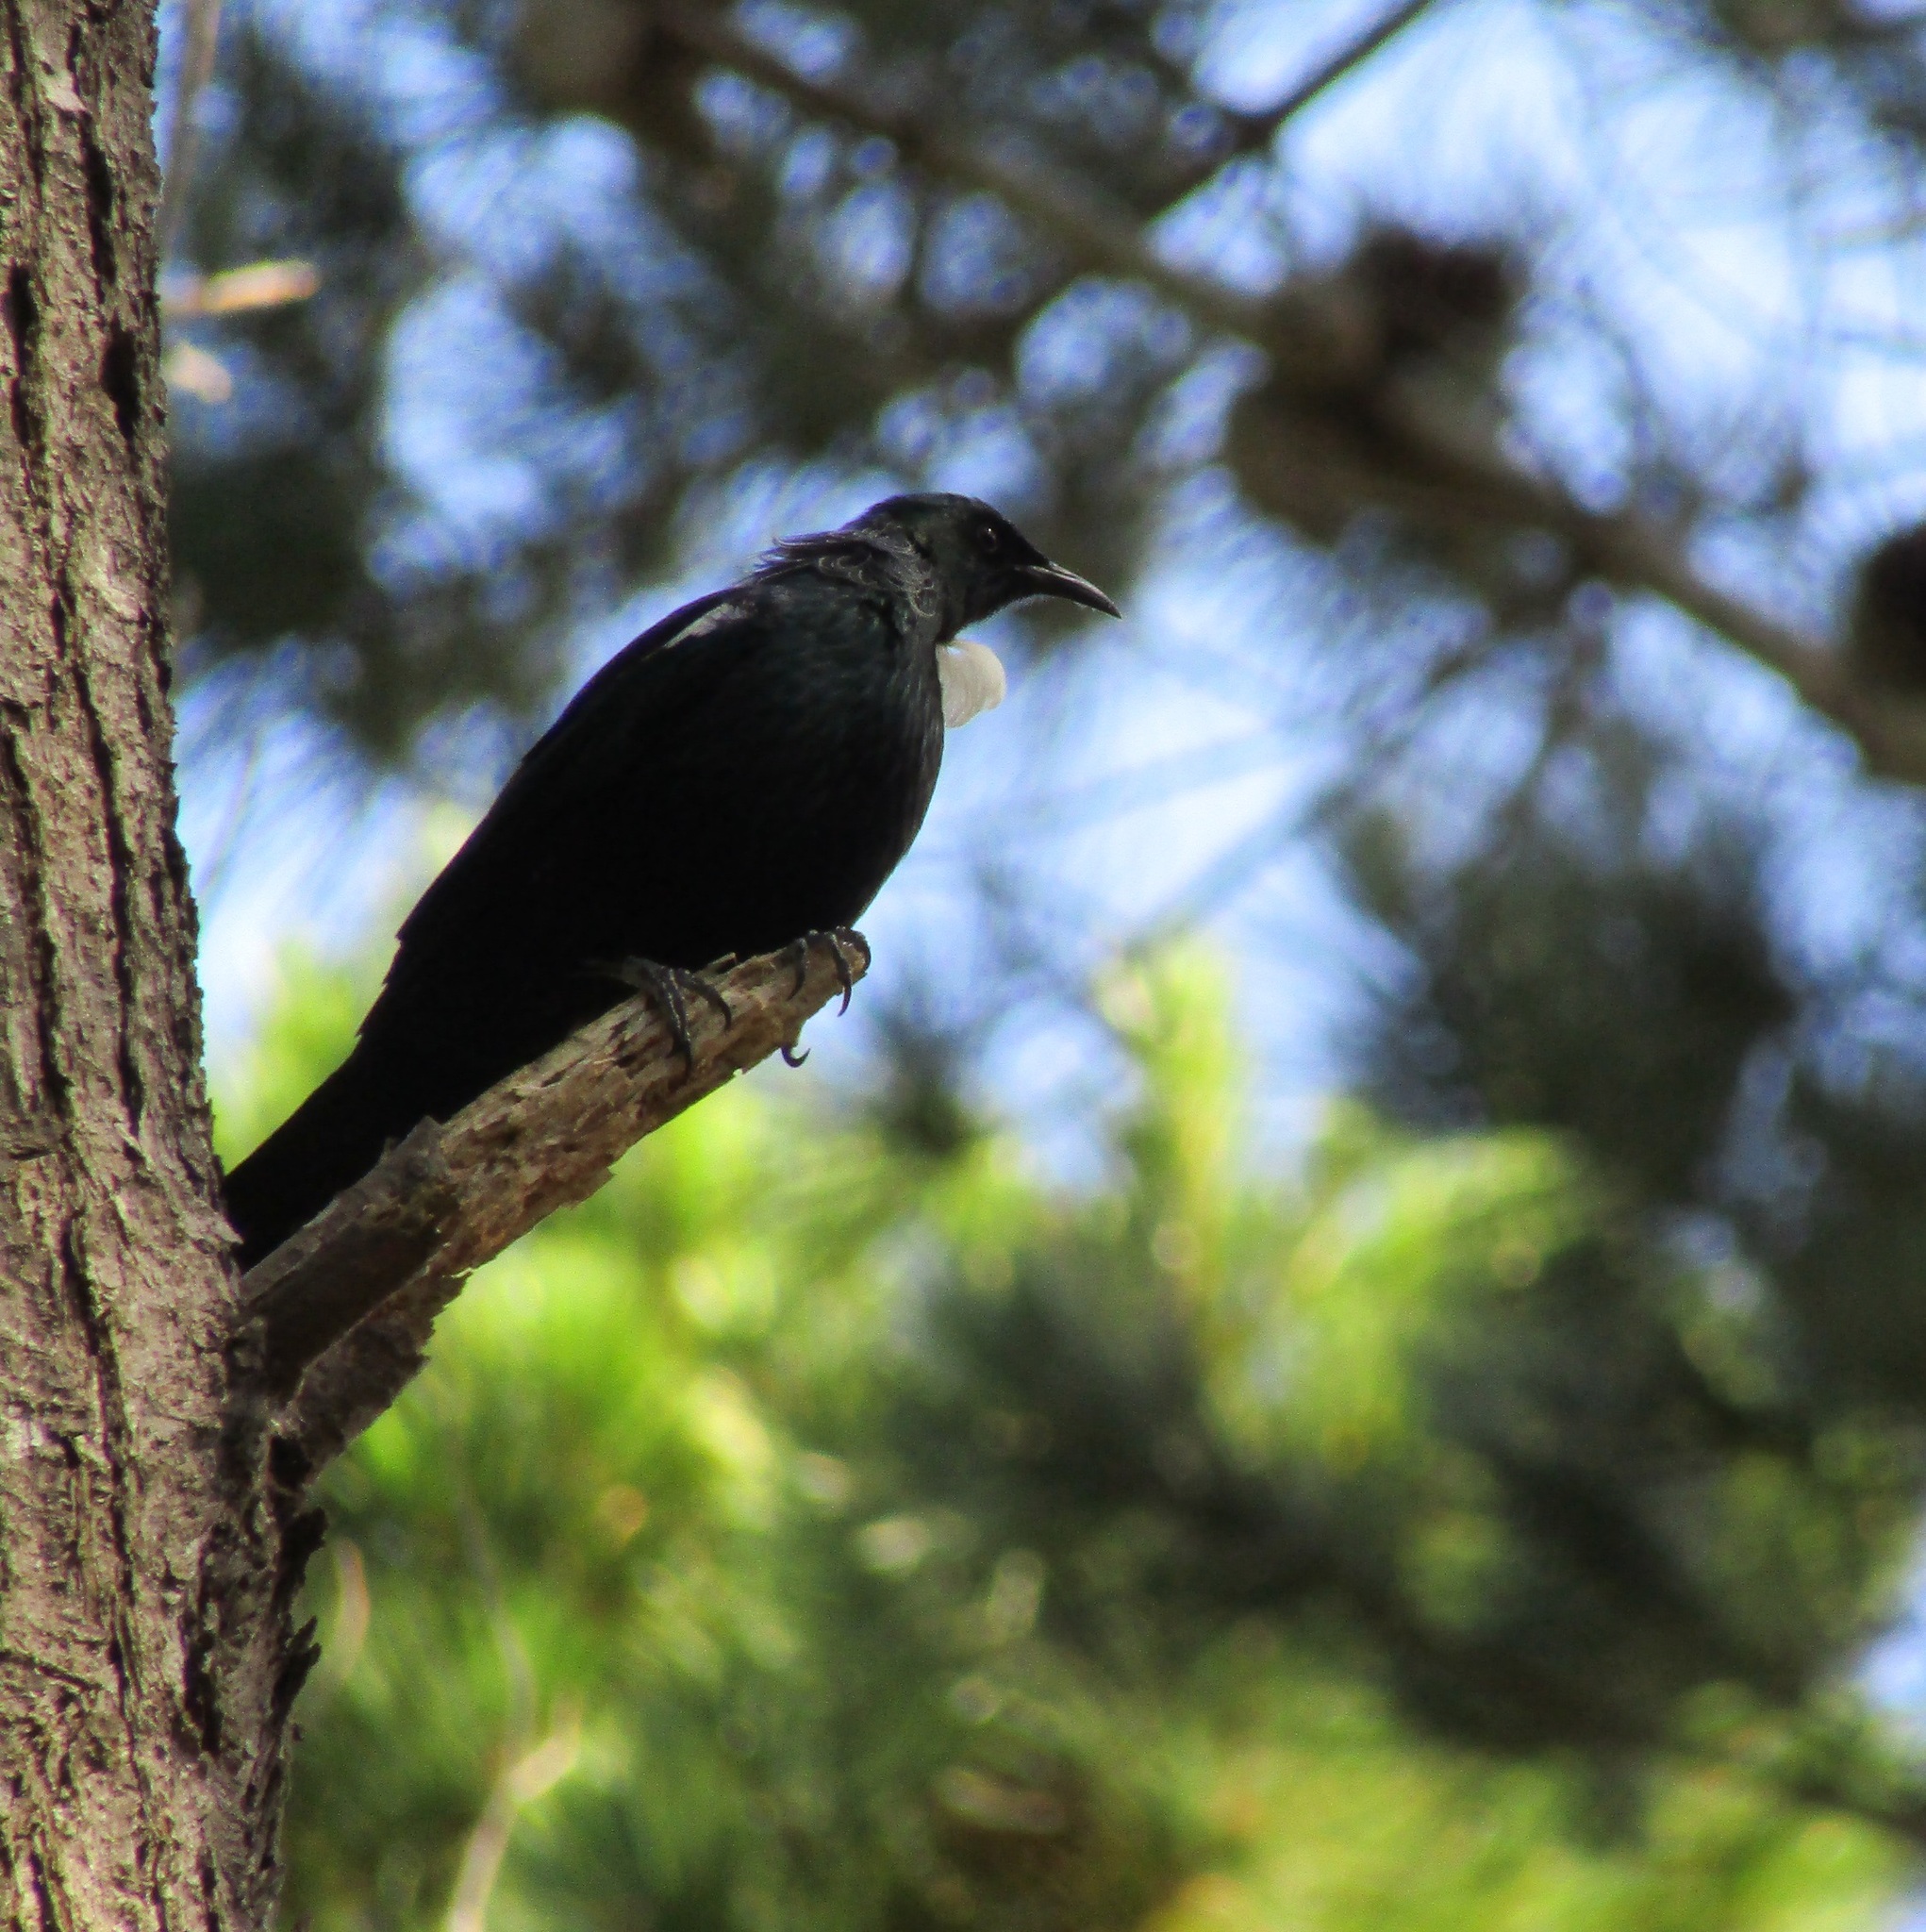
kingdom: Animalia
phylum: Chordata
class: Aves
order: Passeriformes
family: Meliphagidae
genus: Prosthemadera
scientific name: Prosthemadera novaeseelandiae
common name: Tui
